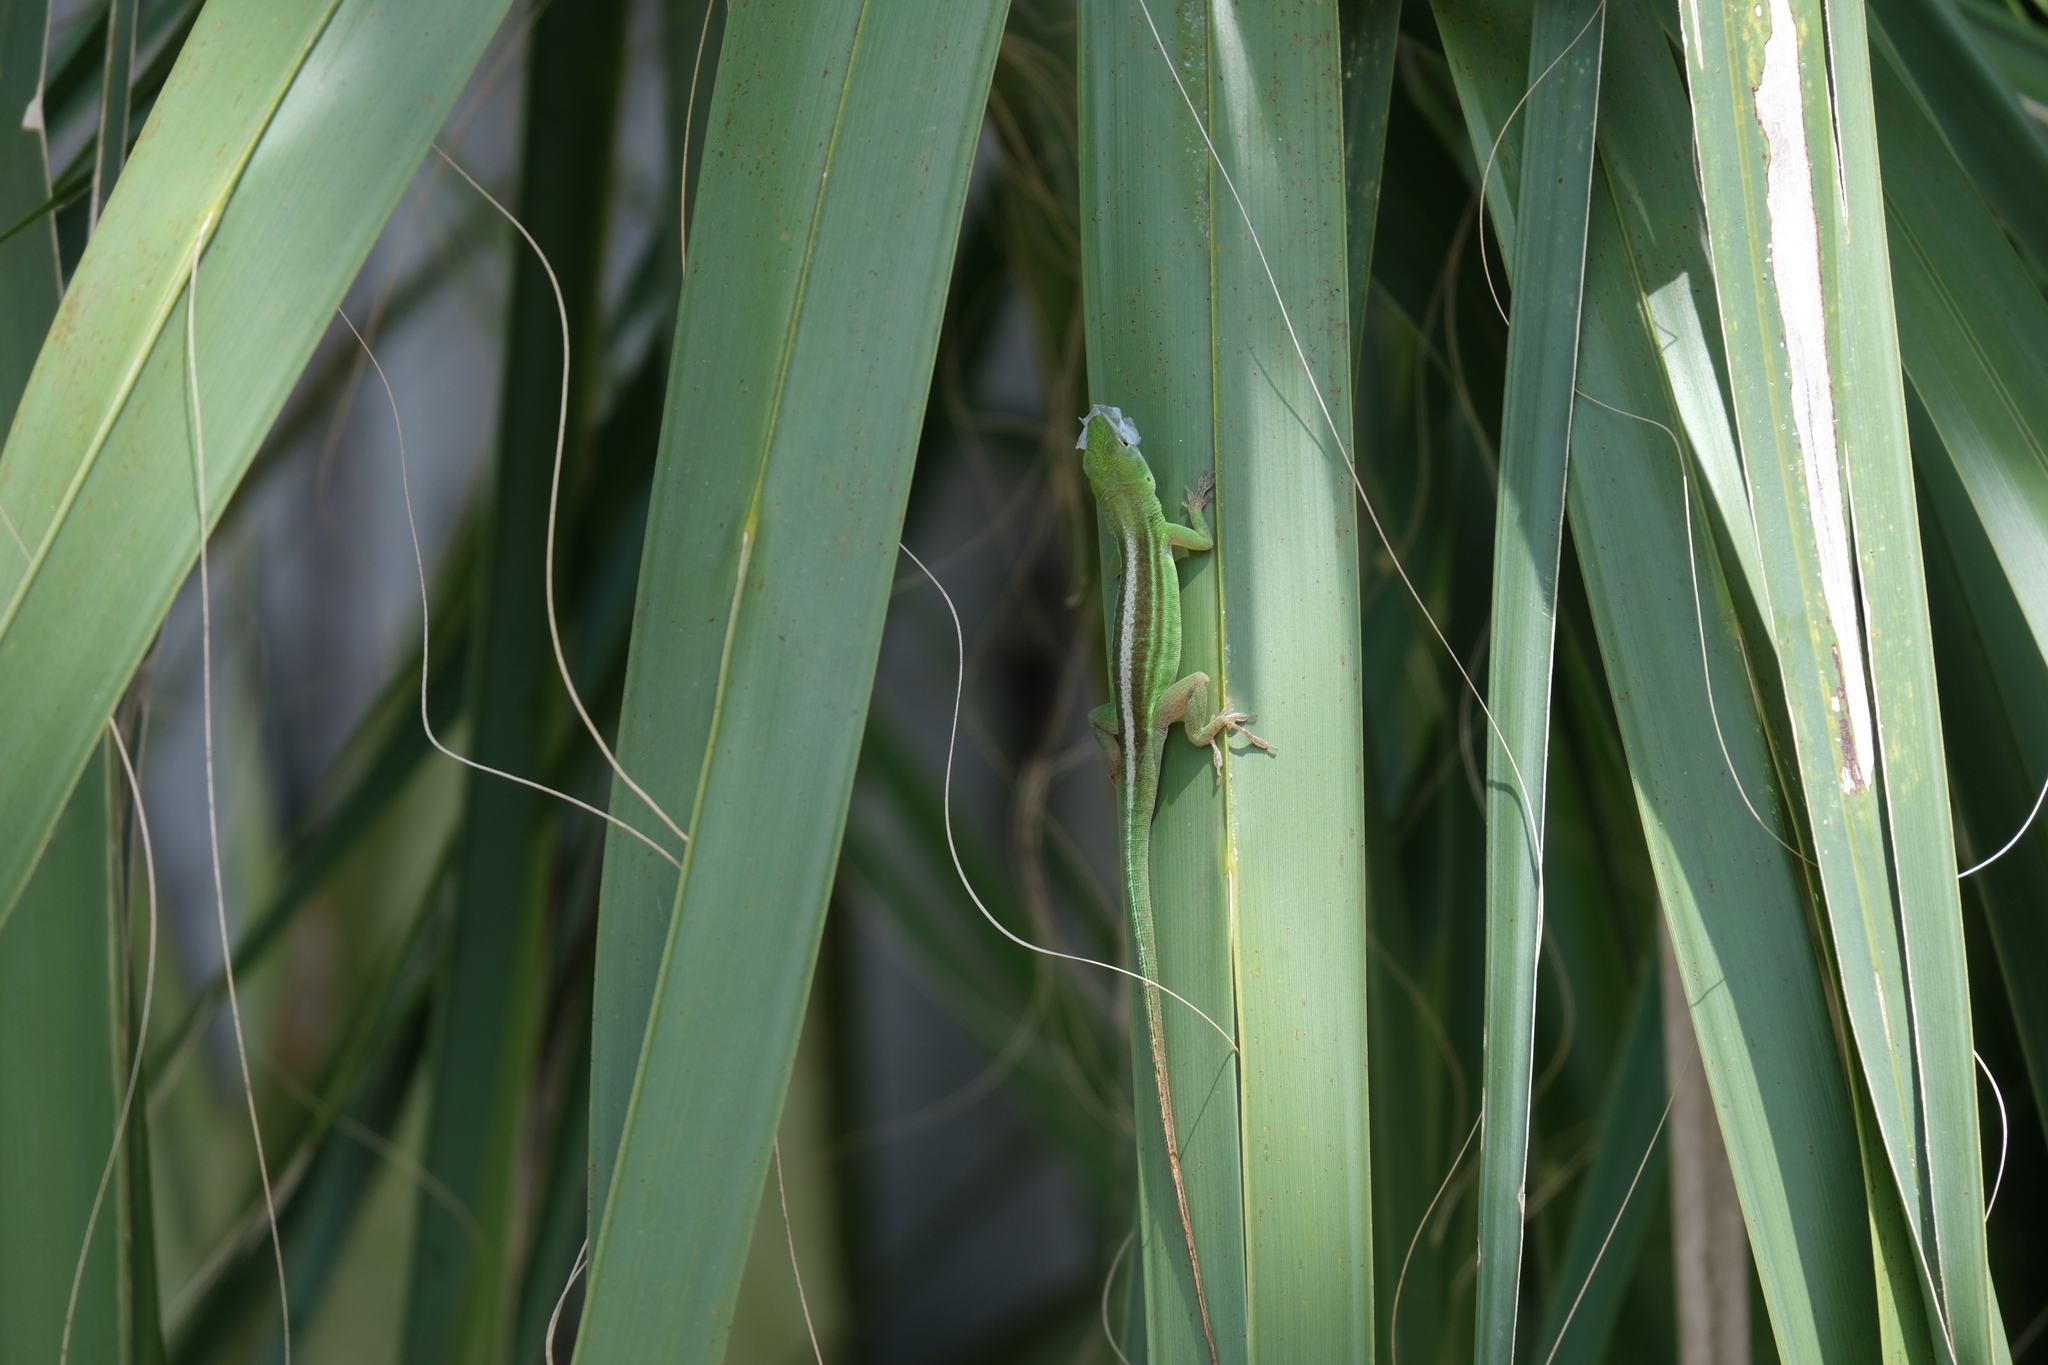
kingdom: Animalia
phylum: Chordata
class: Squamata
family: Dactyloidae
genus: Anolis
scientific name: Anolis chlorocyanus
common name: Hispaniolan green anole
